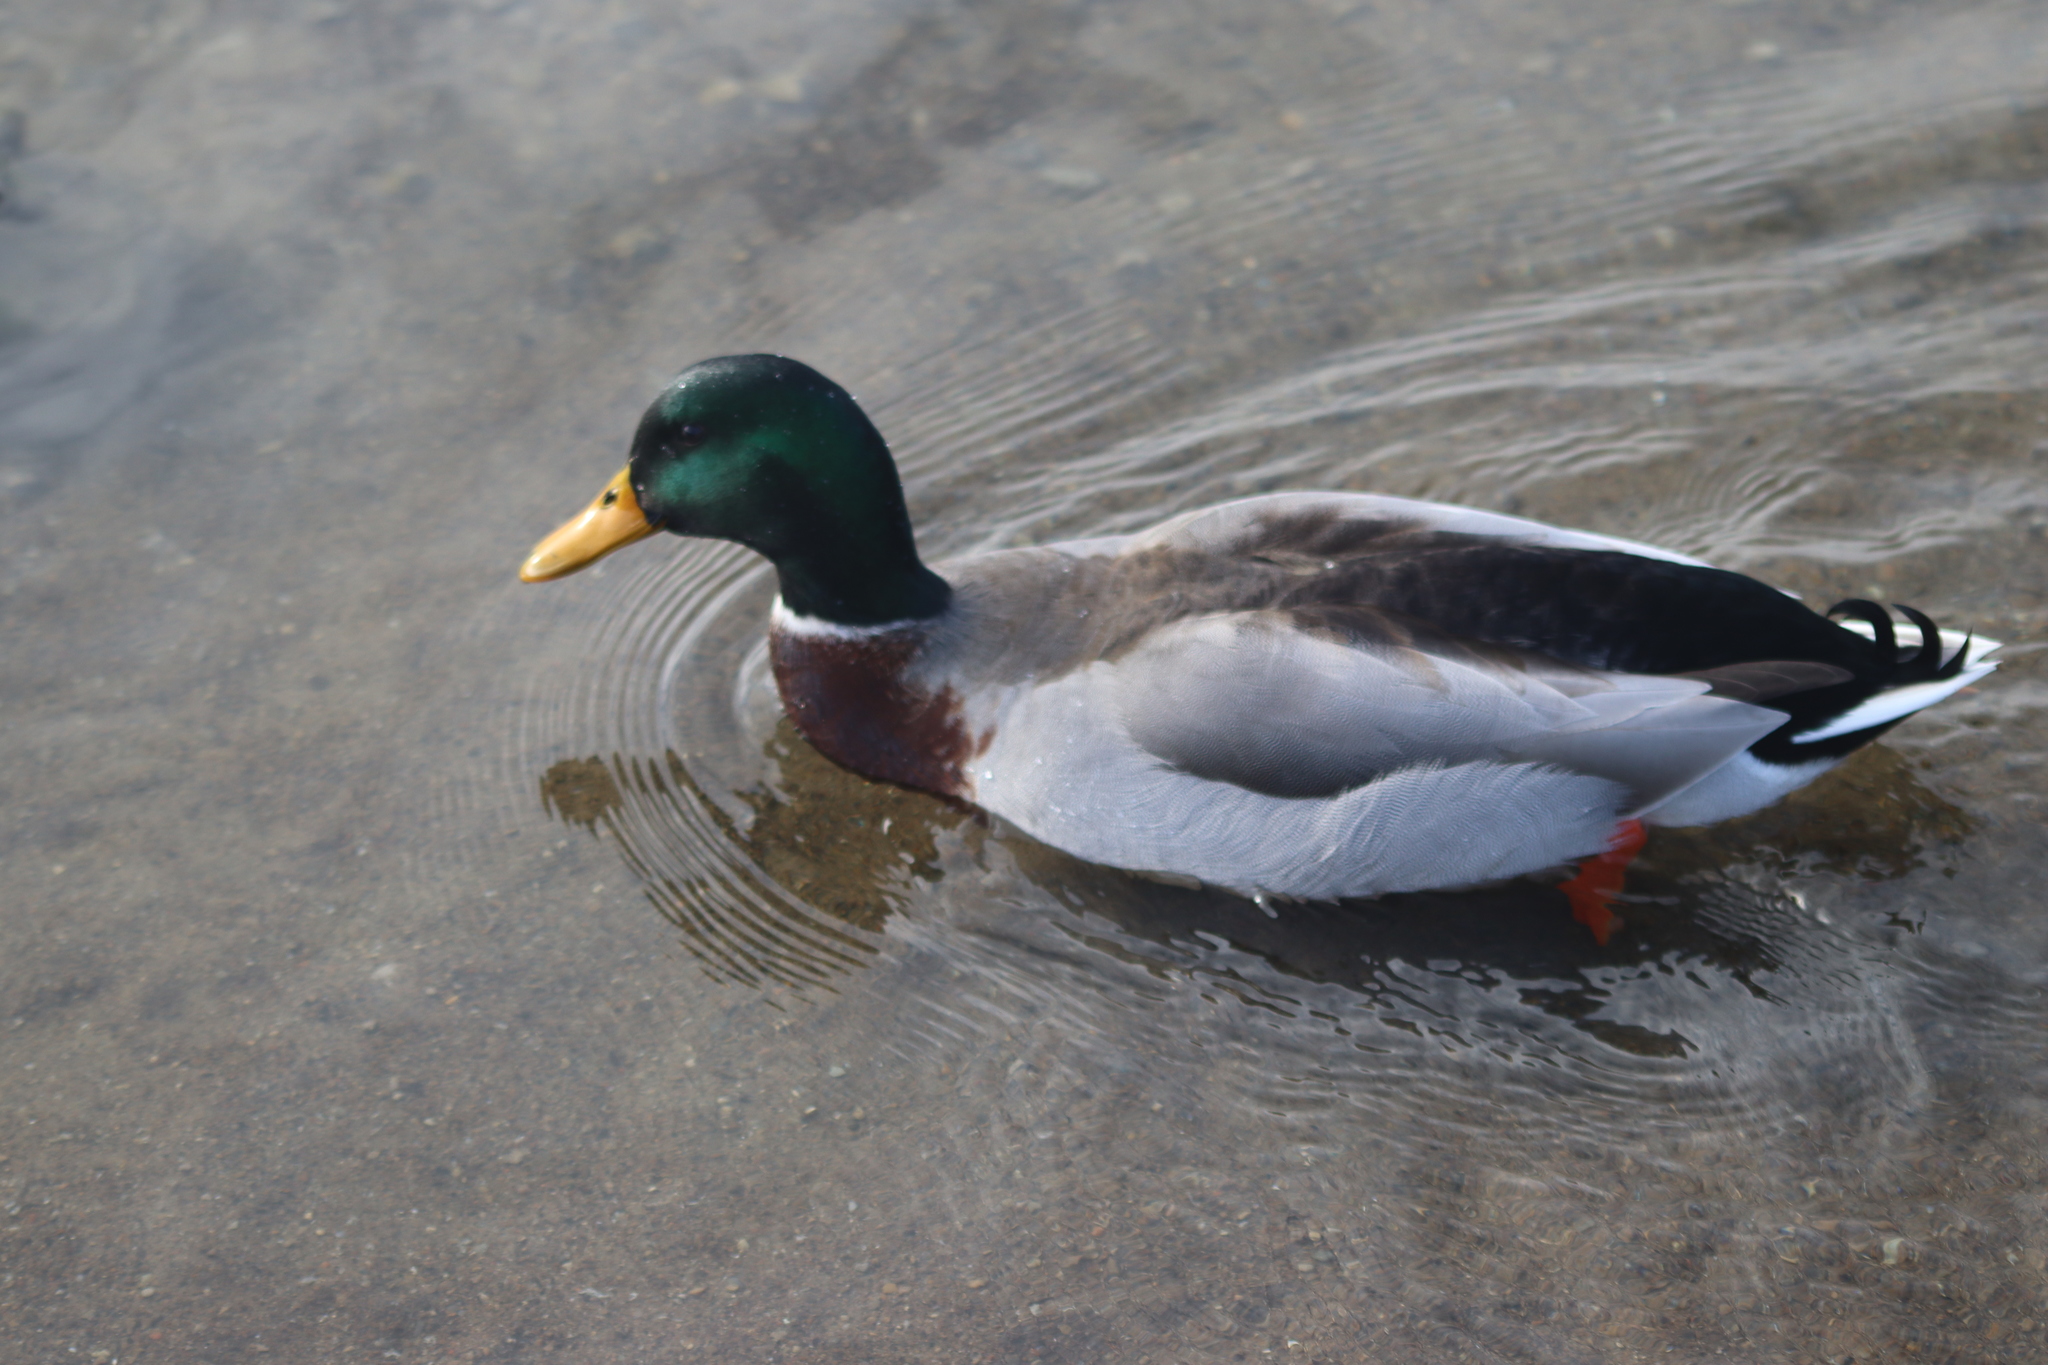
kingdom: Animalia
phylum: Chordata
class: Aves
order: Anseriformes
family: Anatidae
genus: Anas
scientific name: Anas platyrhynchos
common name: Mallard
